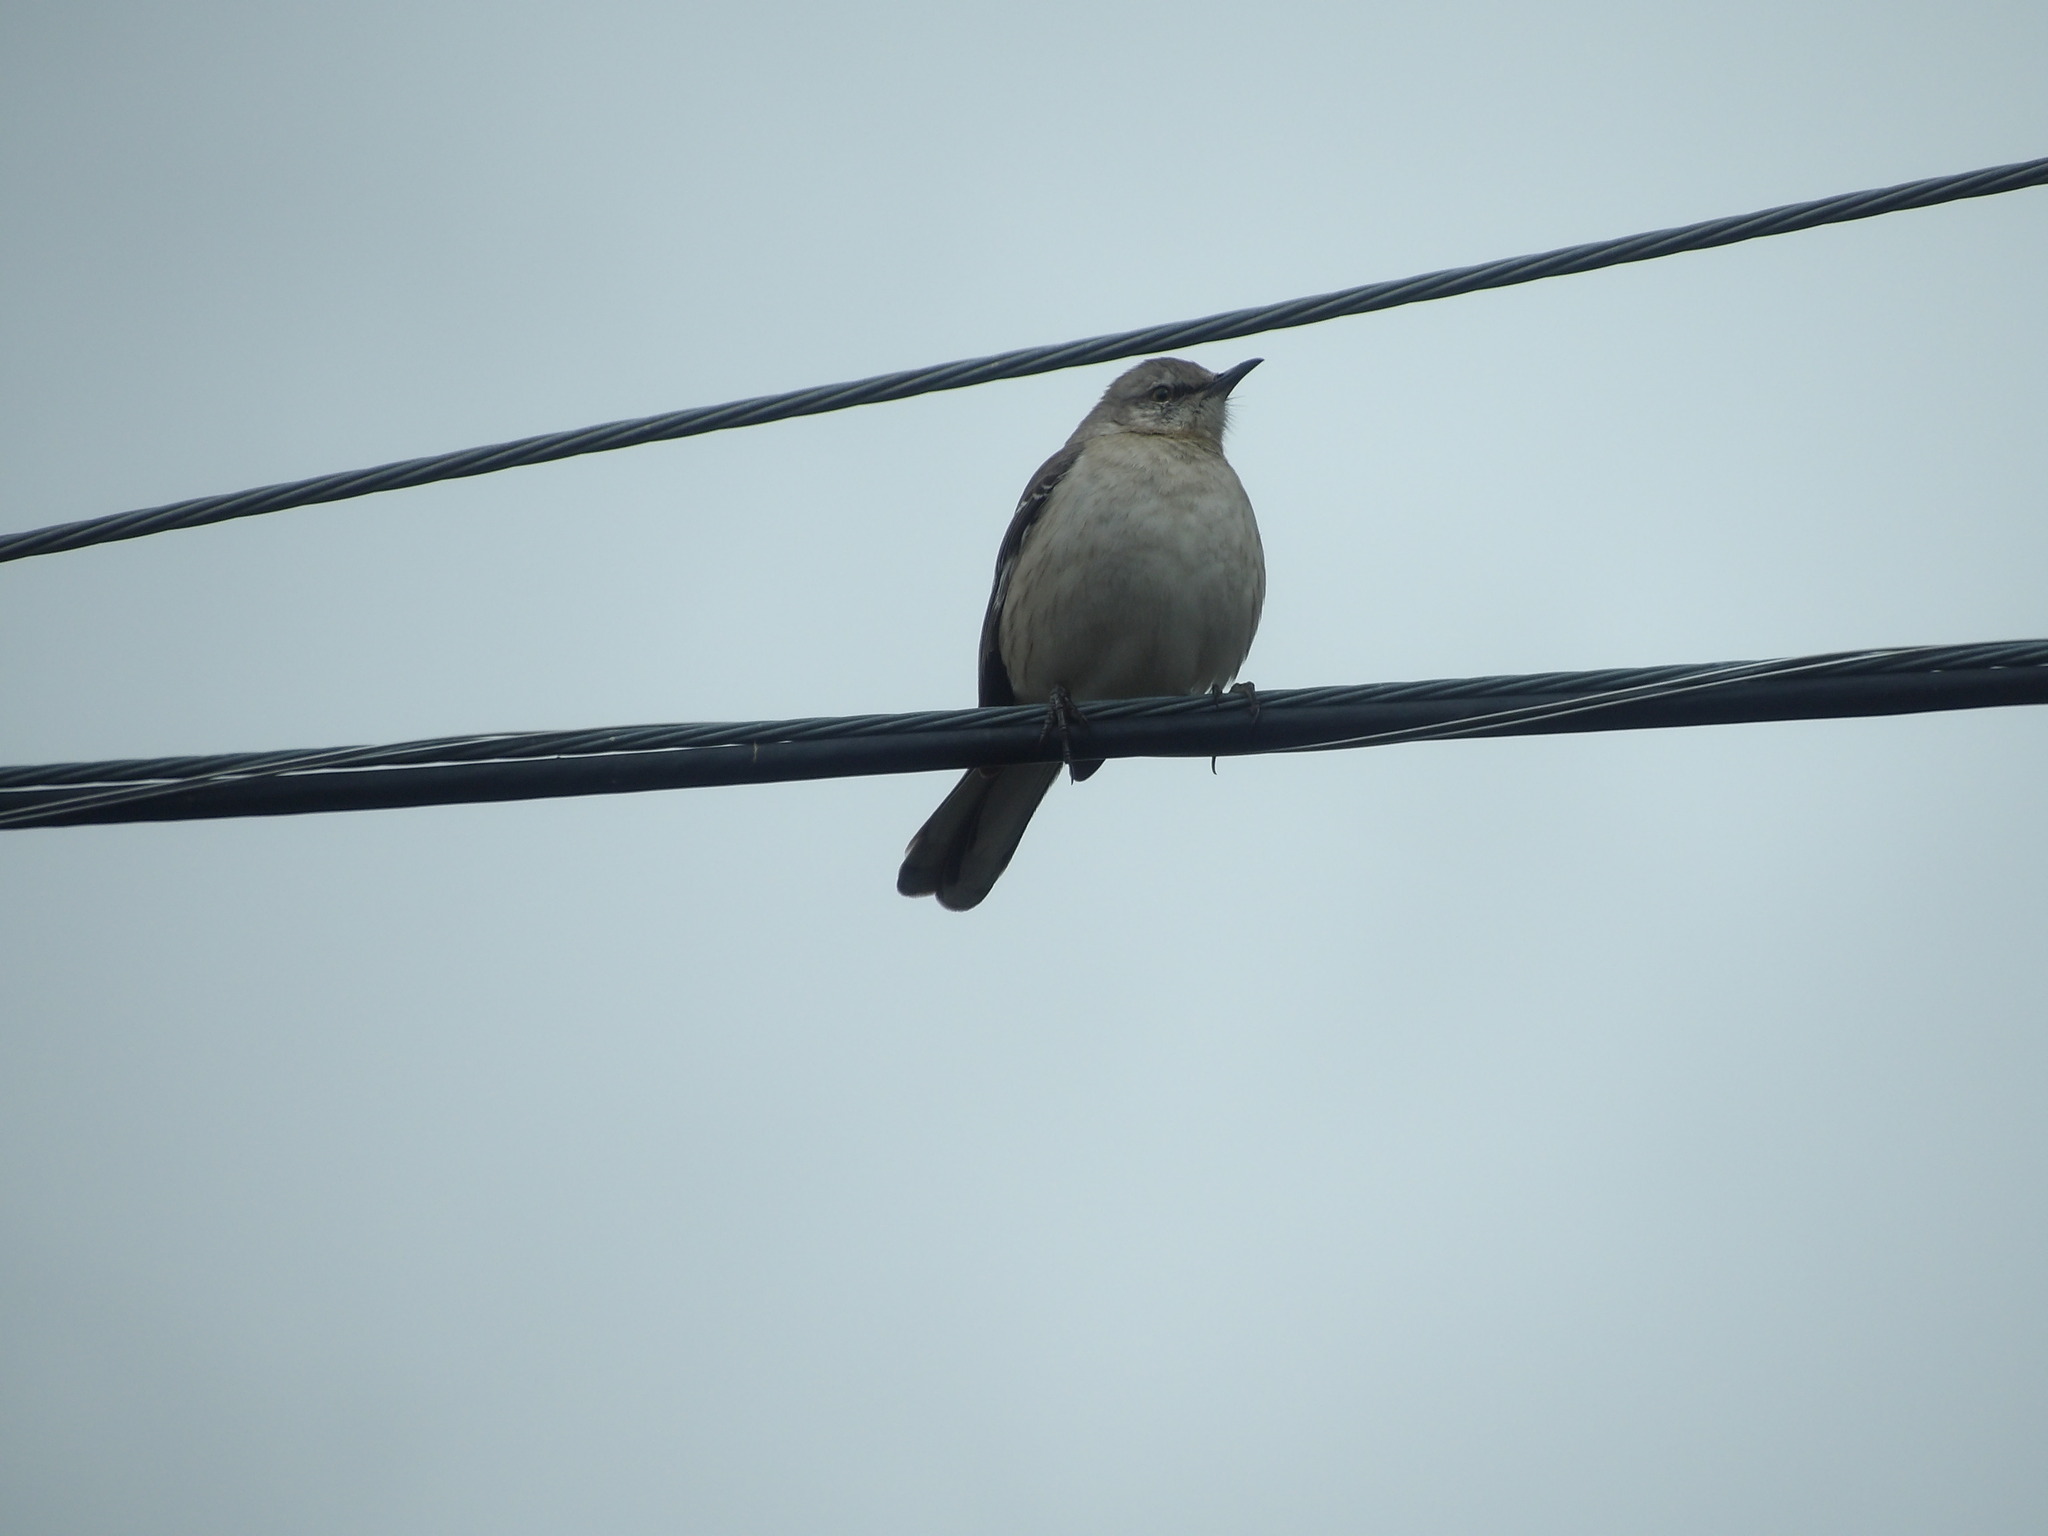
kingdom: Animalia
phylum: Chordata
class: Aves
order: Passeriformes
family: Mimidae
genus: Mimus
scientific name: Mimus polyglottos
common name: Northern mockingbird
